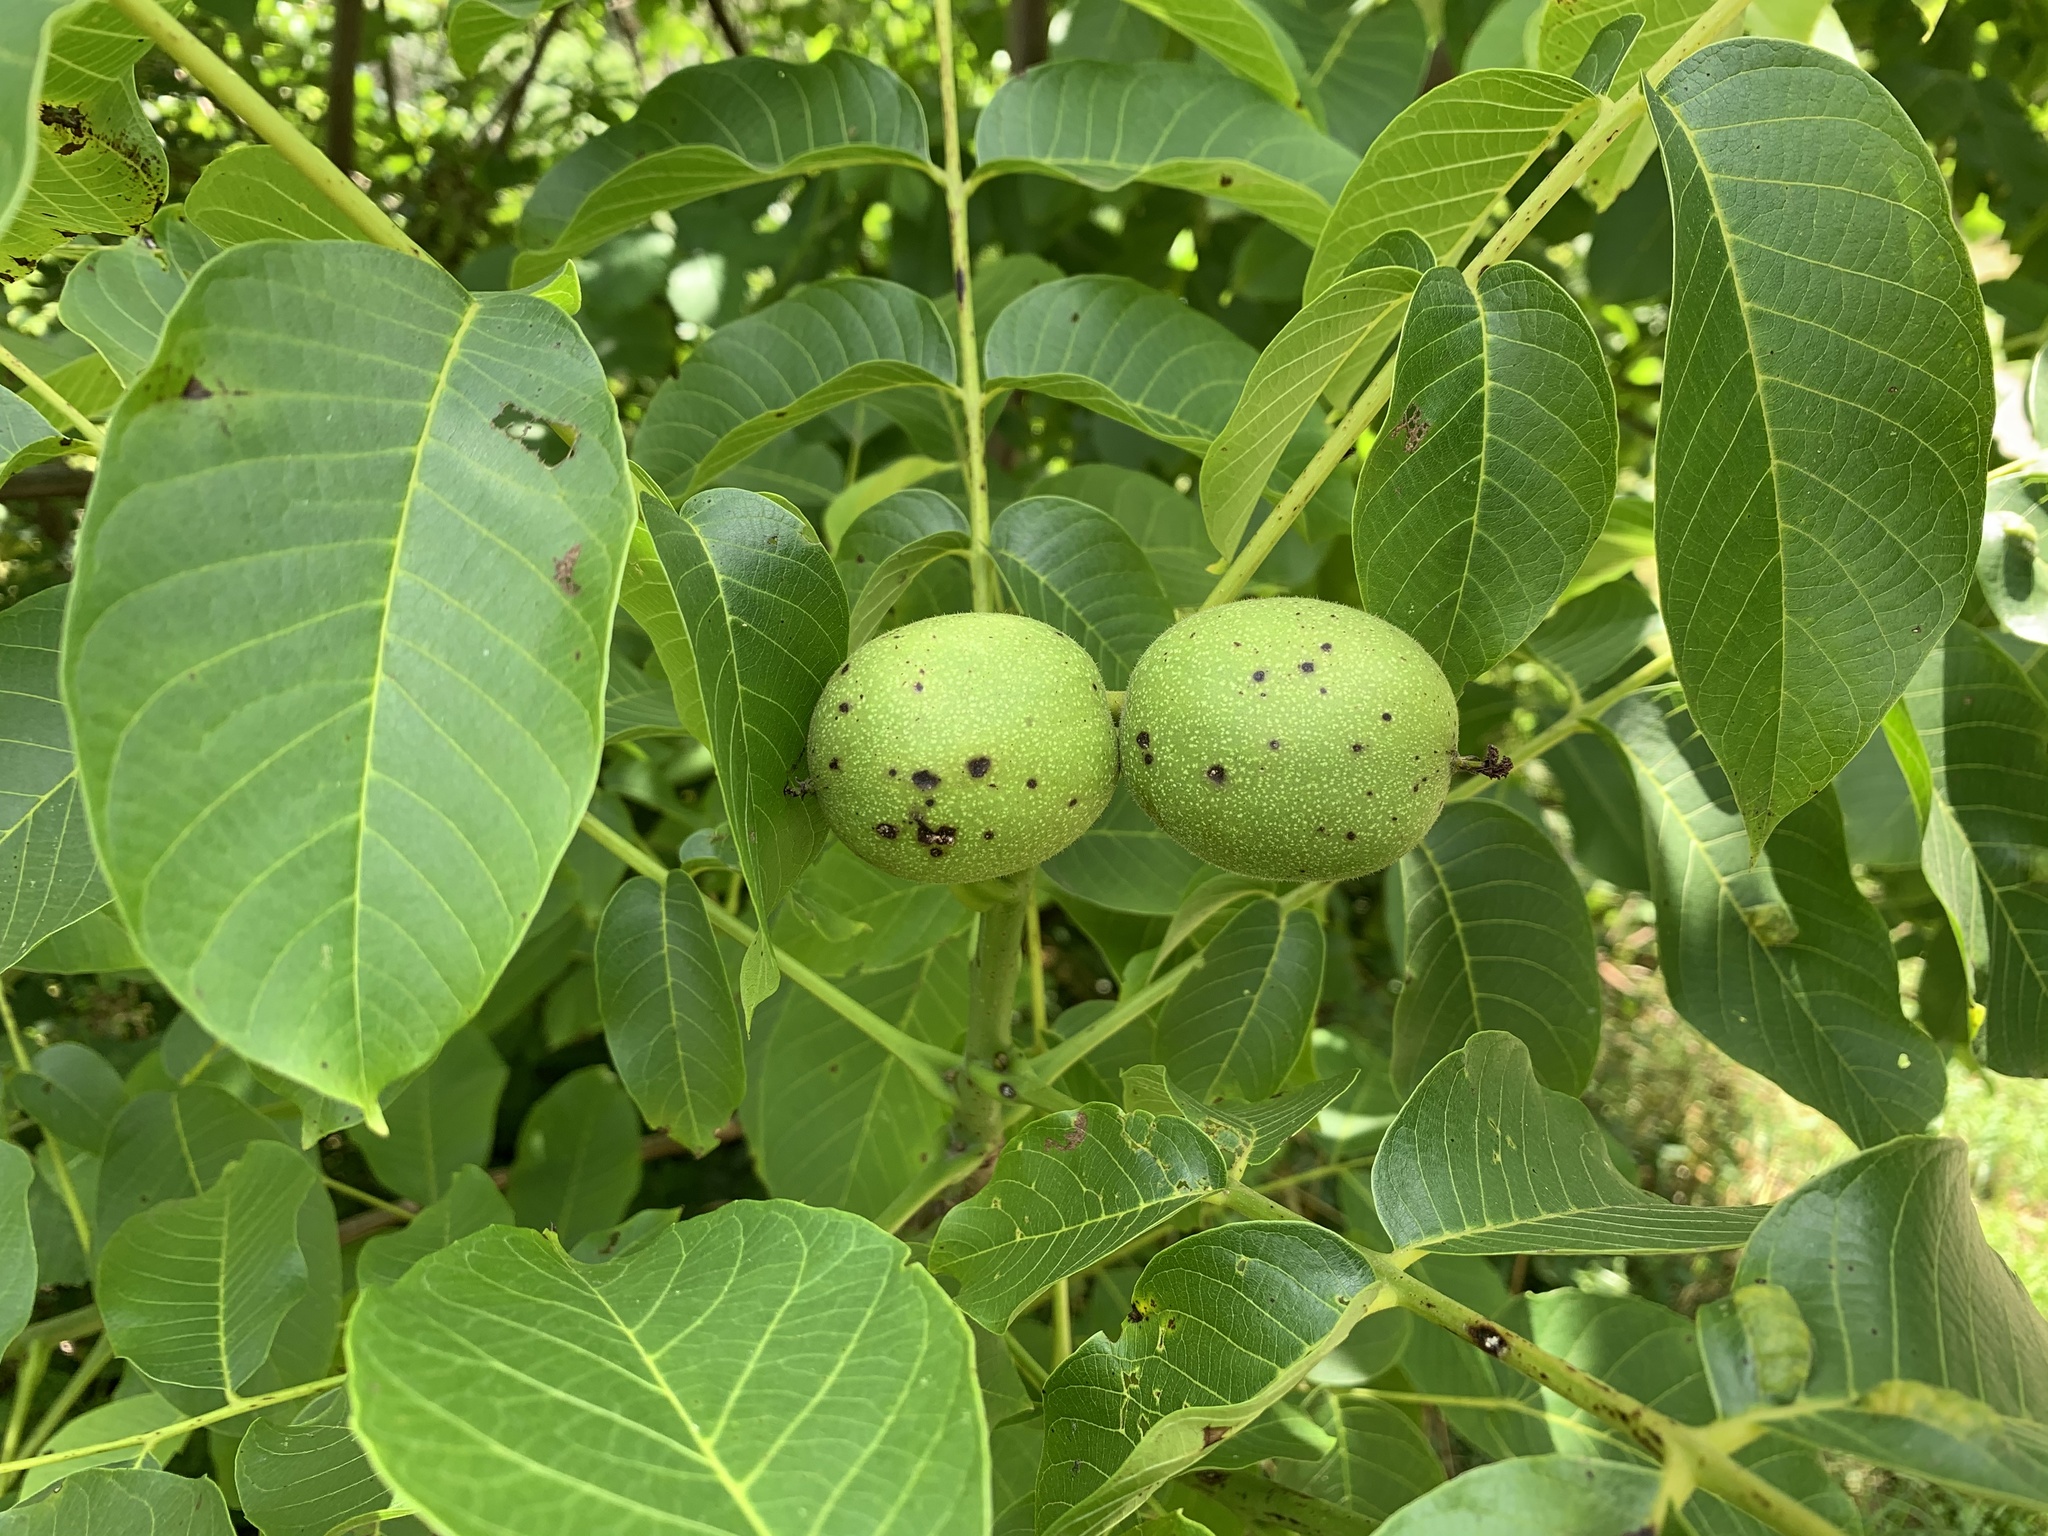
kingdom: Plantae
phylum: Tracheophyta
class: Magnoliopsida
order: Fagales
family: Juglandaceae
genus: Juglans
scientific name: Juglans regia
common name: Walnut
